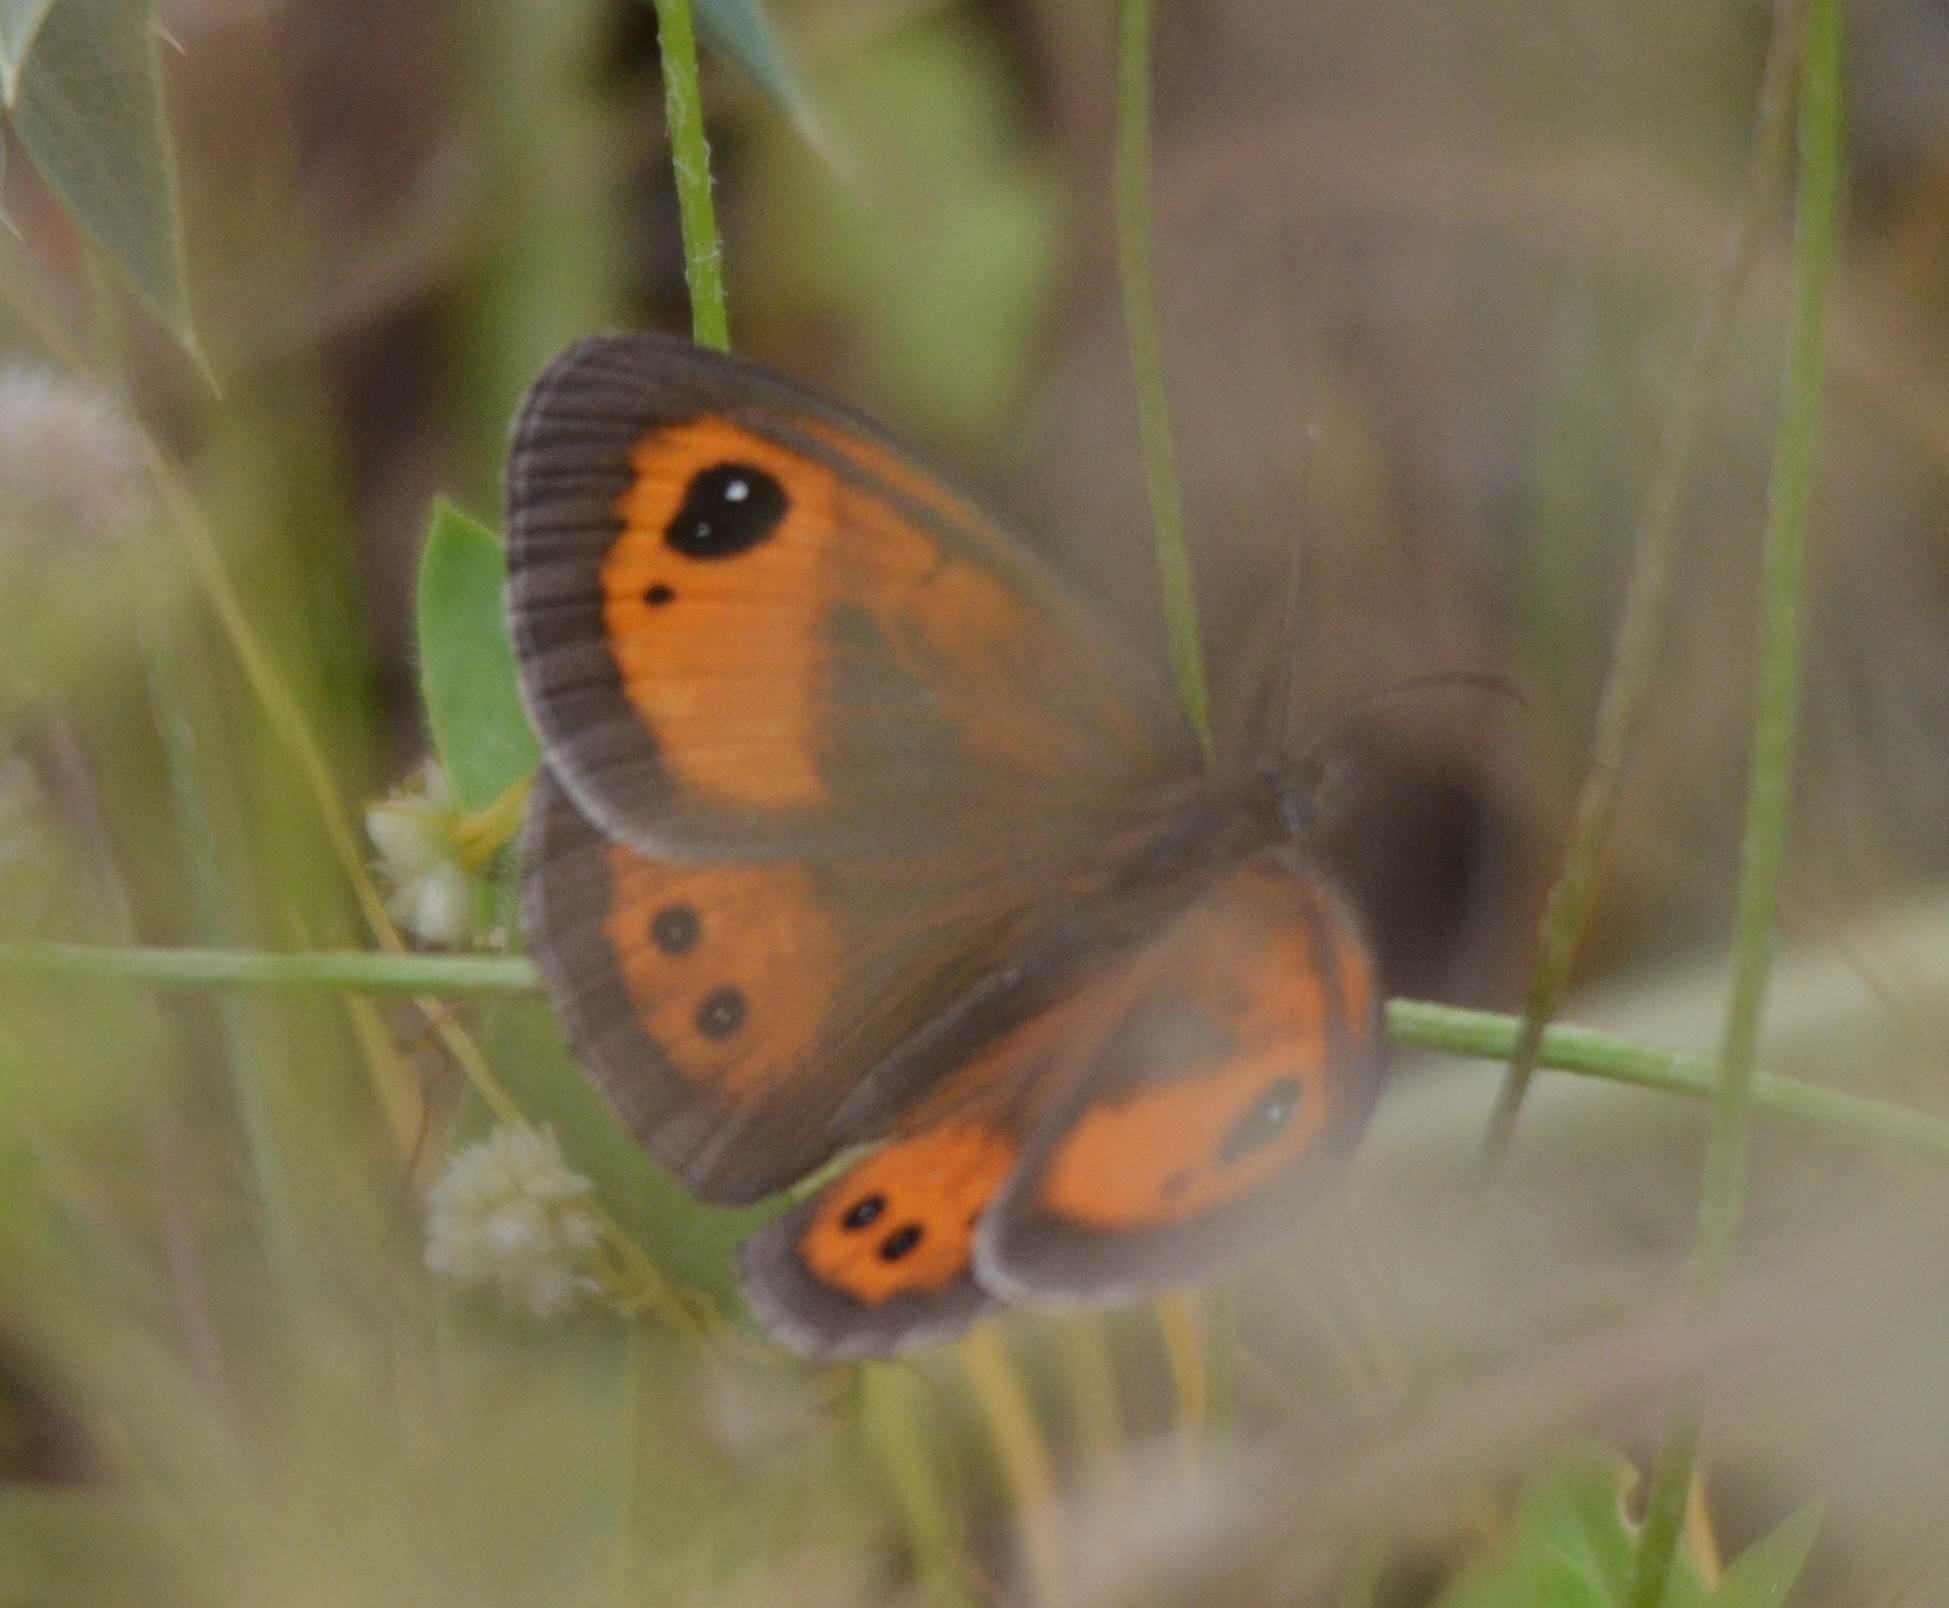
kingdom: Animalia
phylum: Arthropoda
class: Insecta
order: Lepidoptera
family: Nymphalidae
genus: Pyronia
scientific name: Pyronia bathseba
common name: Spanish gatekeeper
